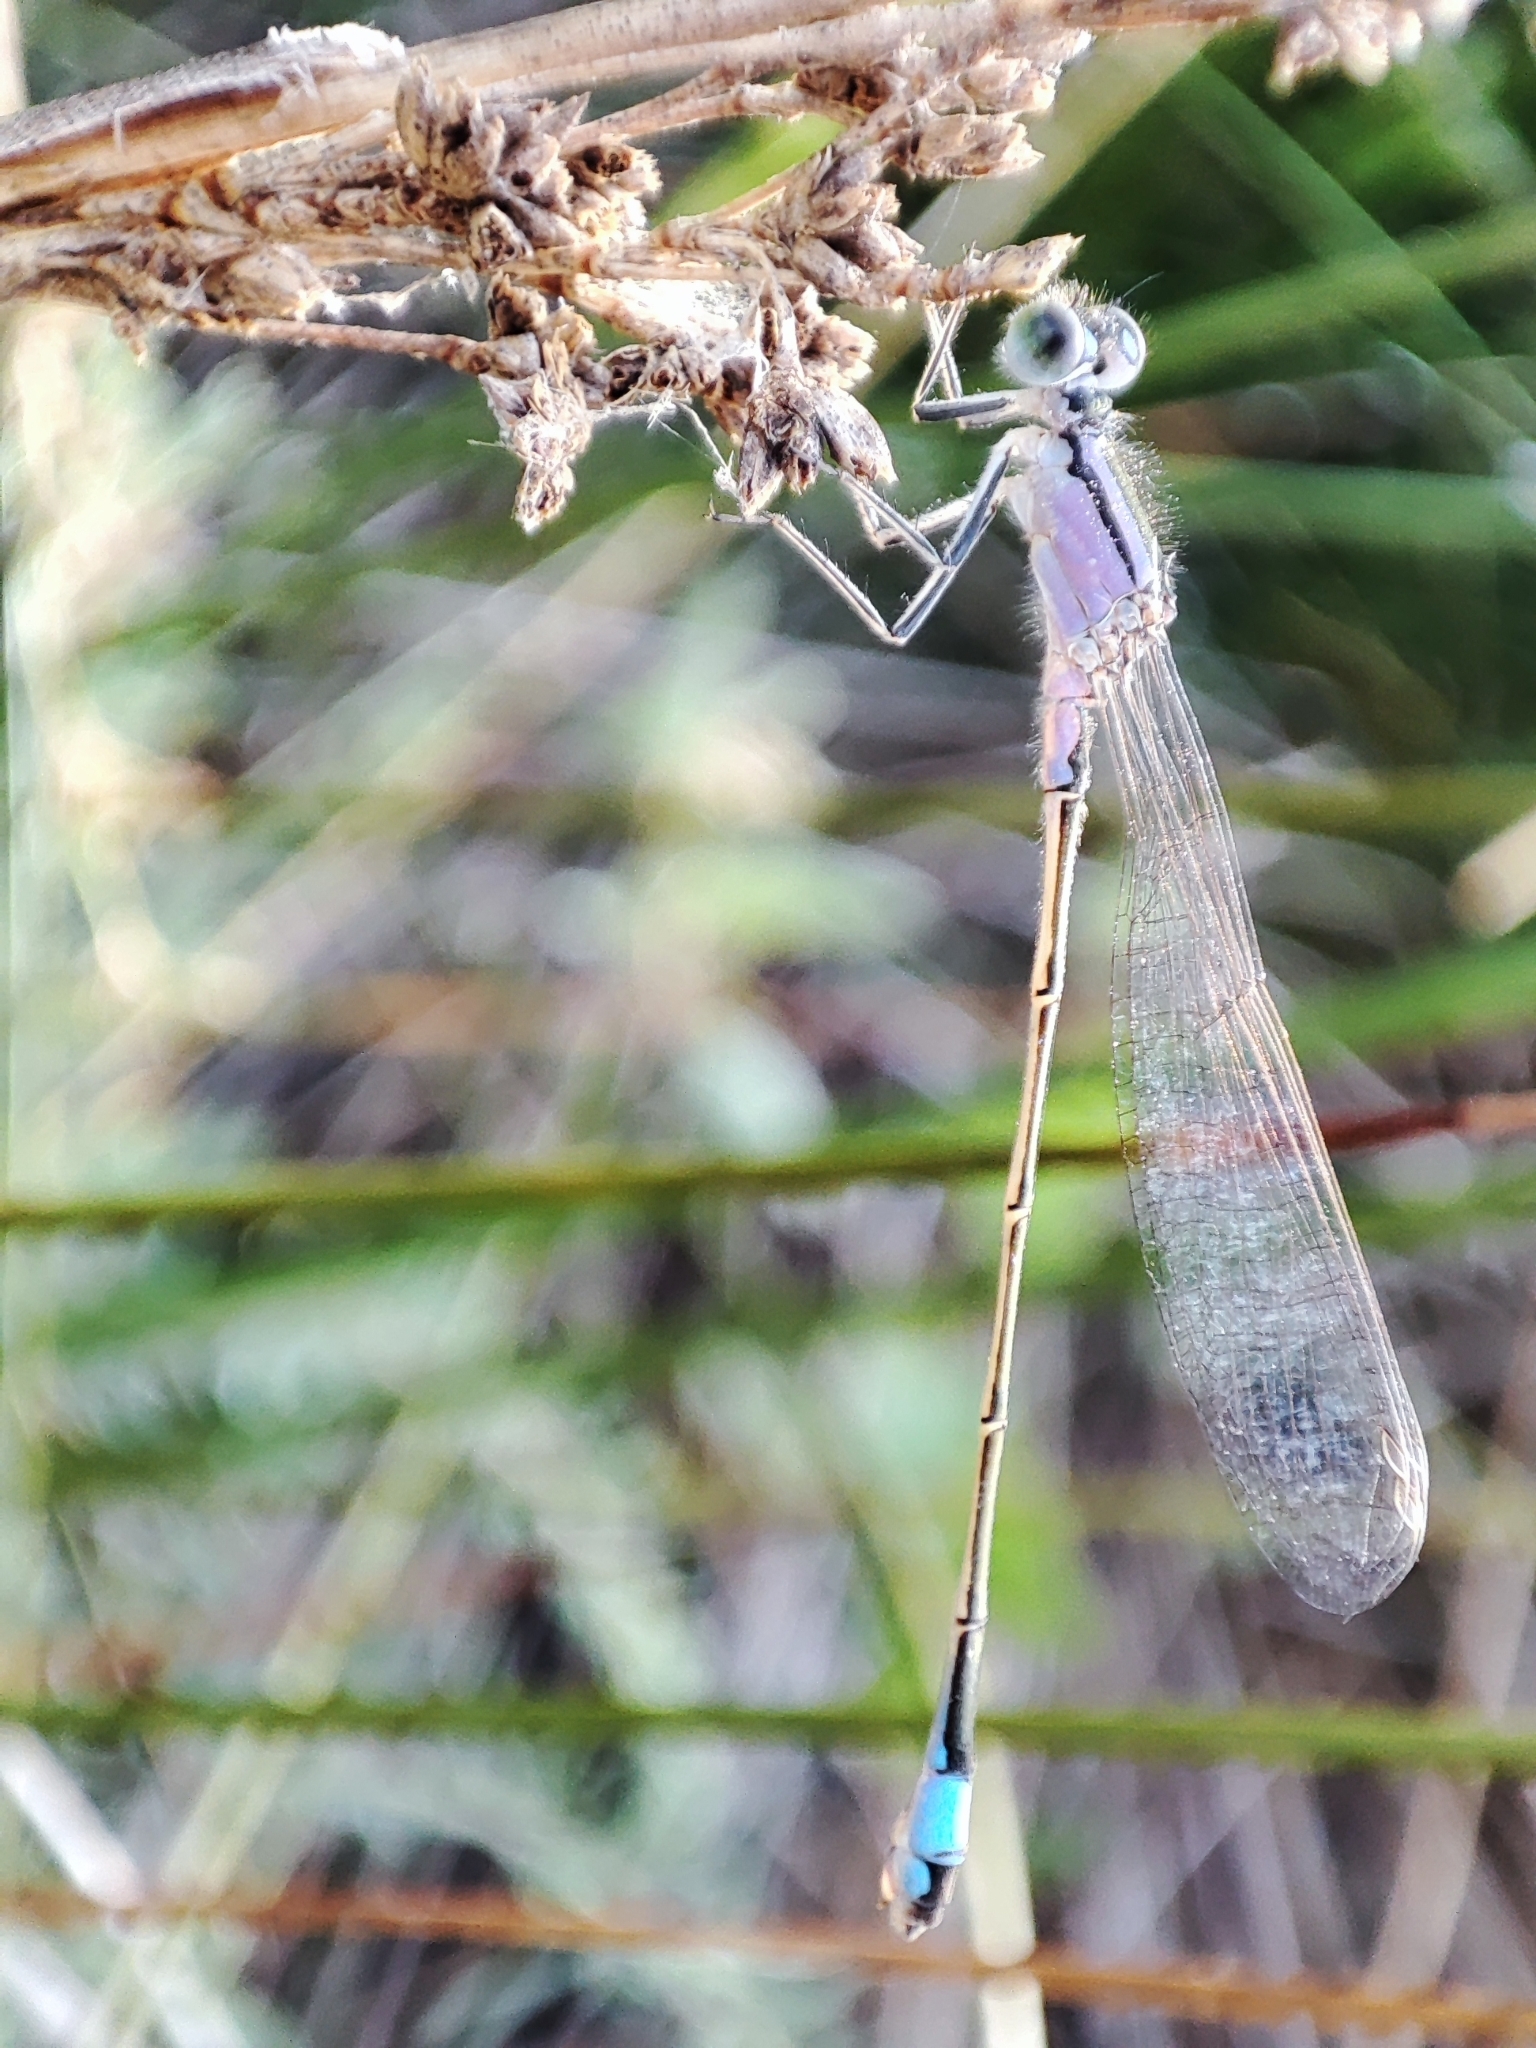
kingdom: Animalia
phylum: Arthropoda
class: Insecta
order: Odonata
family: Coenagrionidae
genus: Ischnura
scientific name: Ischnura elegans
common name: Blue-tailed damselfly
